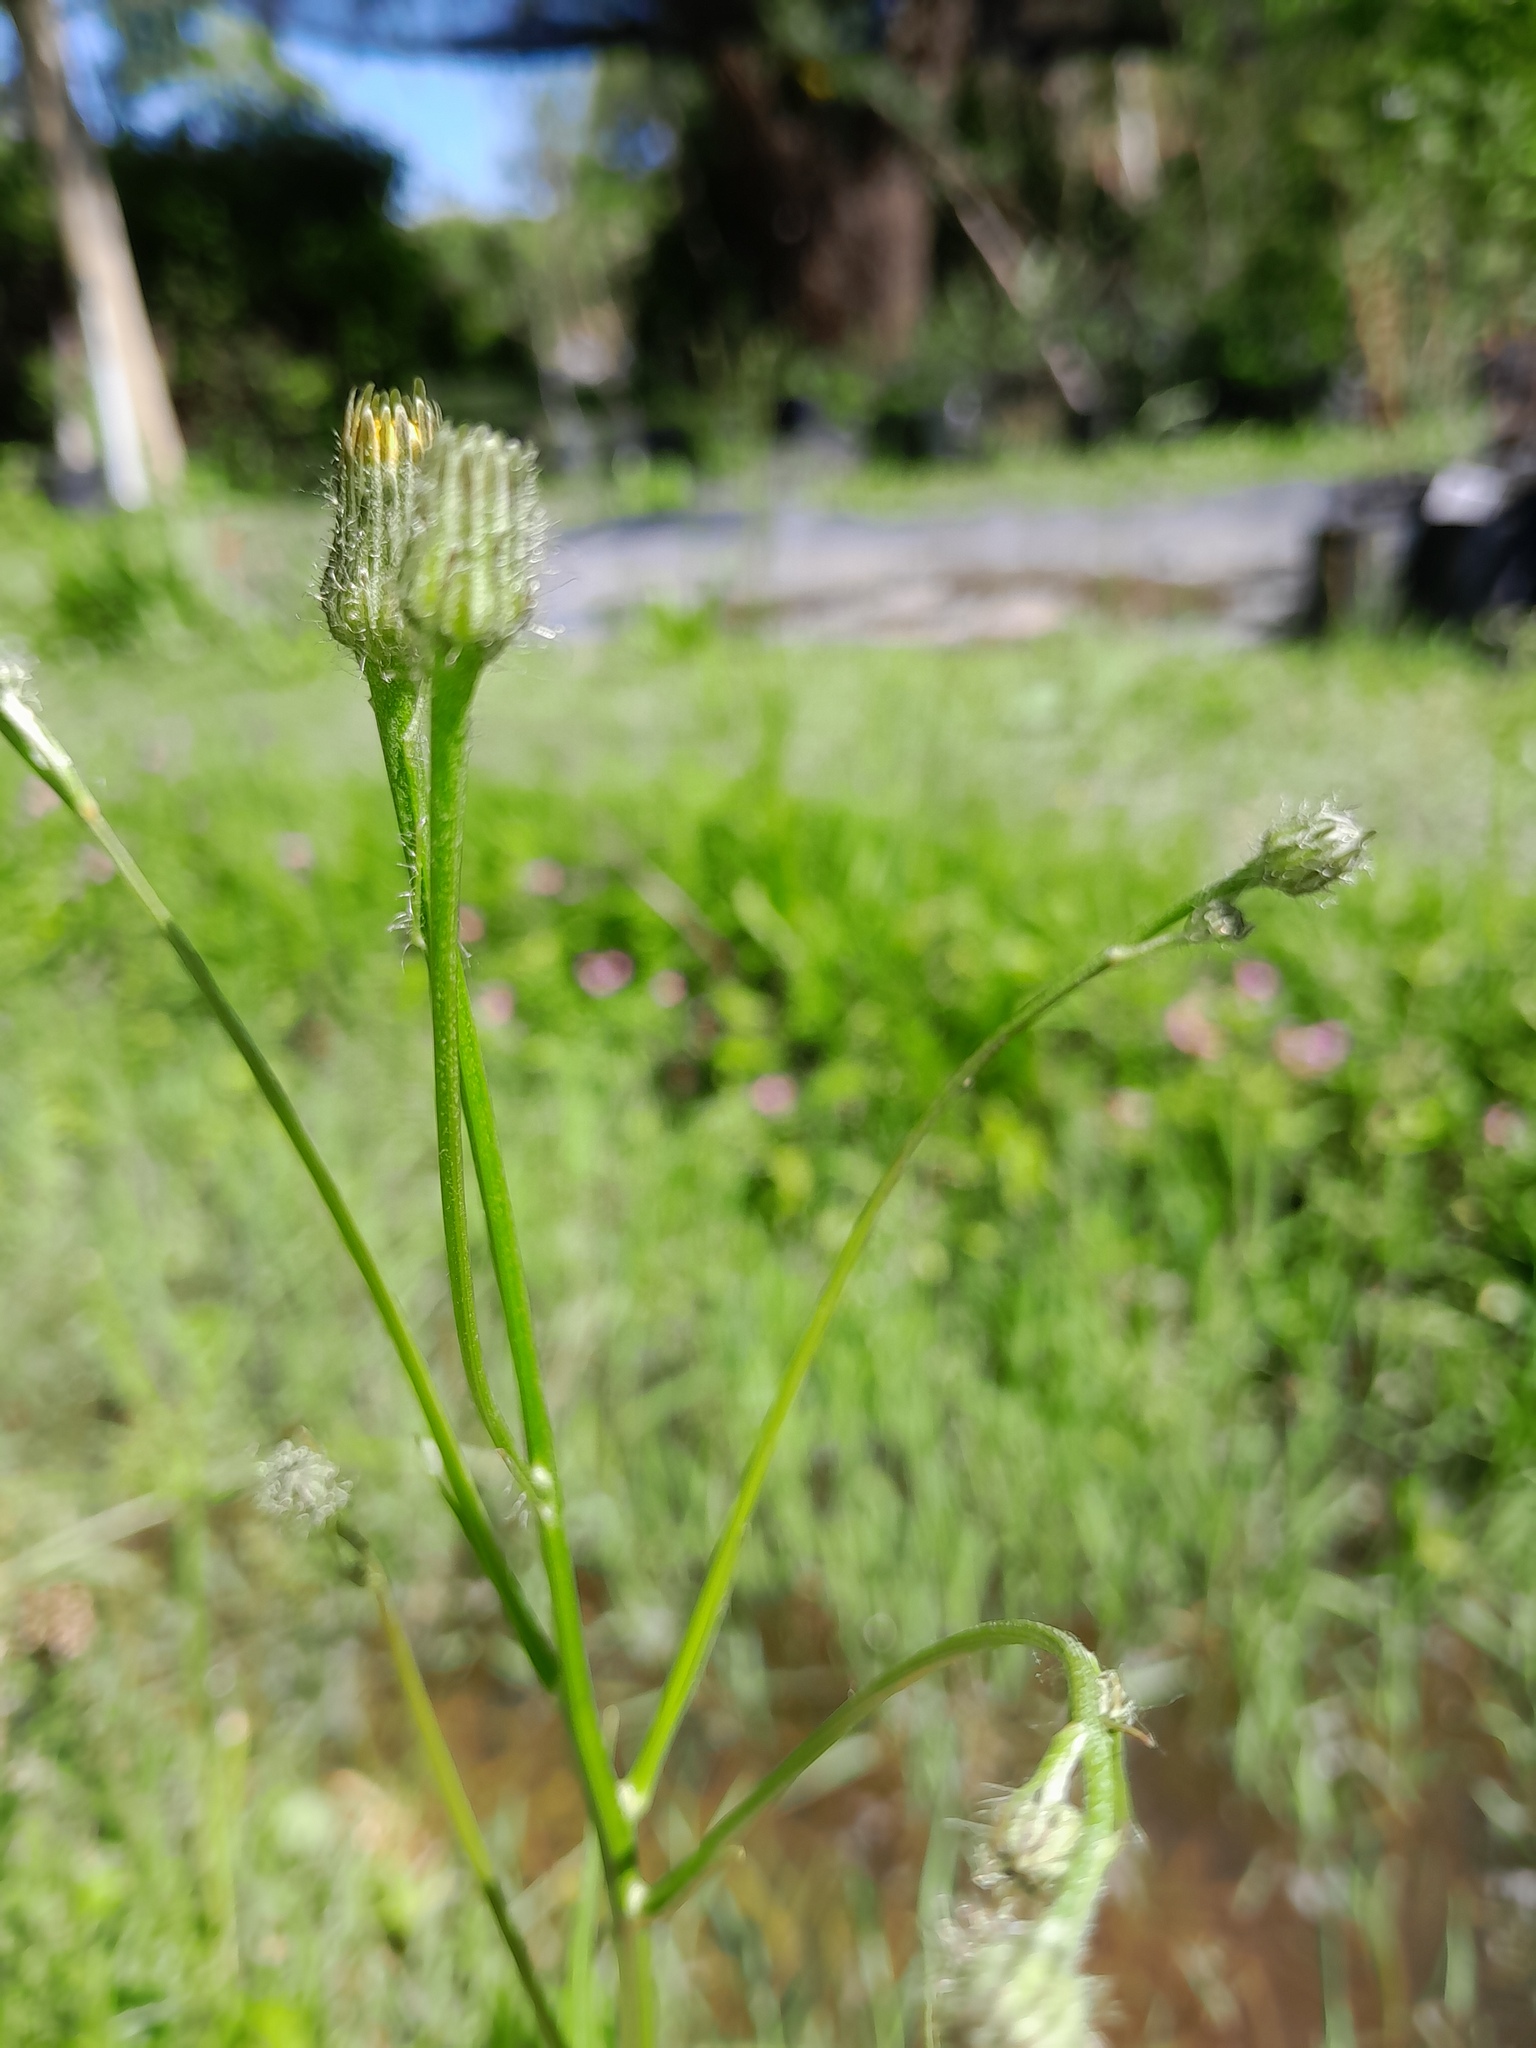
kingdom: Plantae
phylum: Tracheophyta
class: Magnoliopsida
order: Asterales
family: Asteraceae
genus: Hypochaeris
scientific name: Hypochaeris chillensis
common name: Brazilian cat's ear
